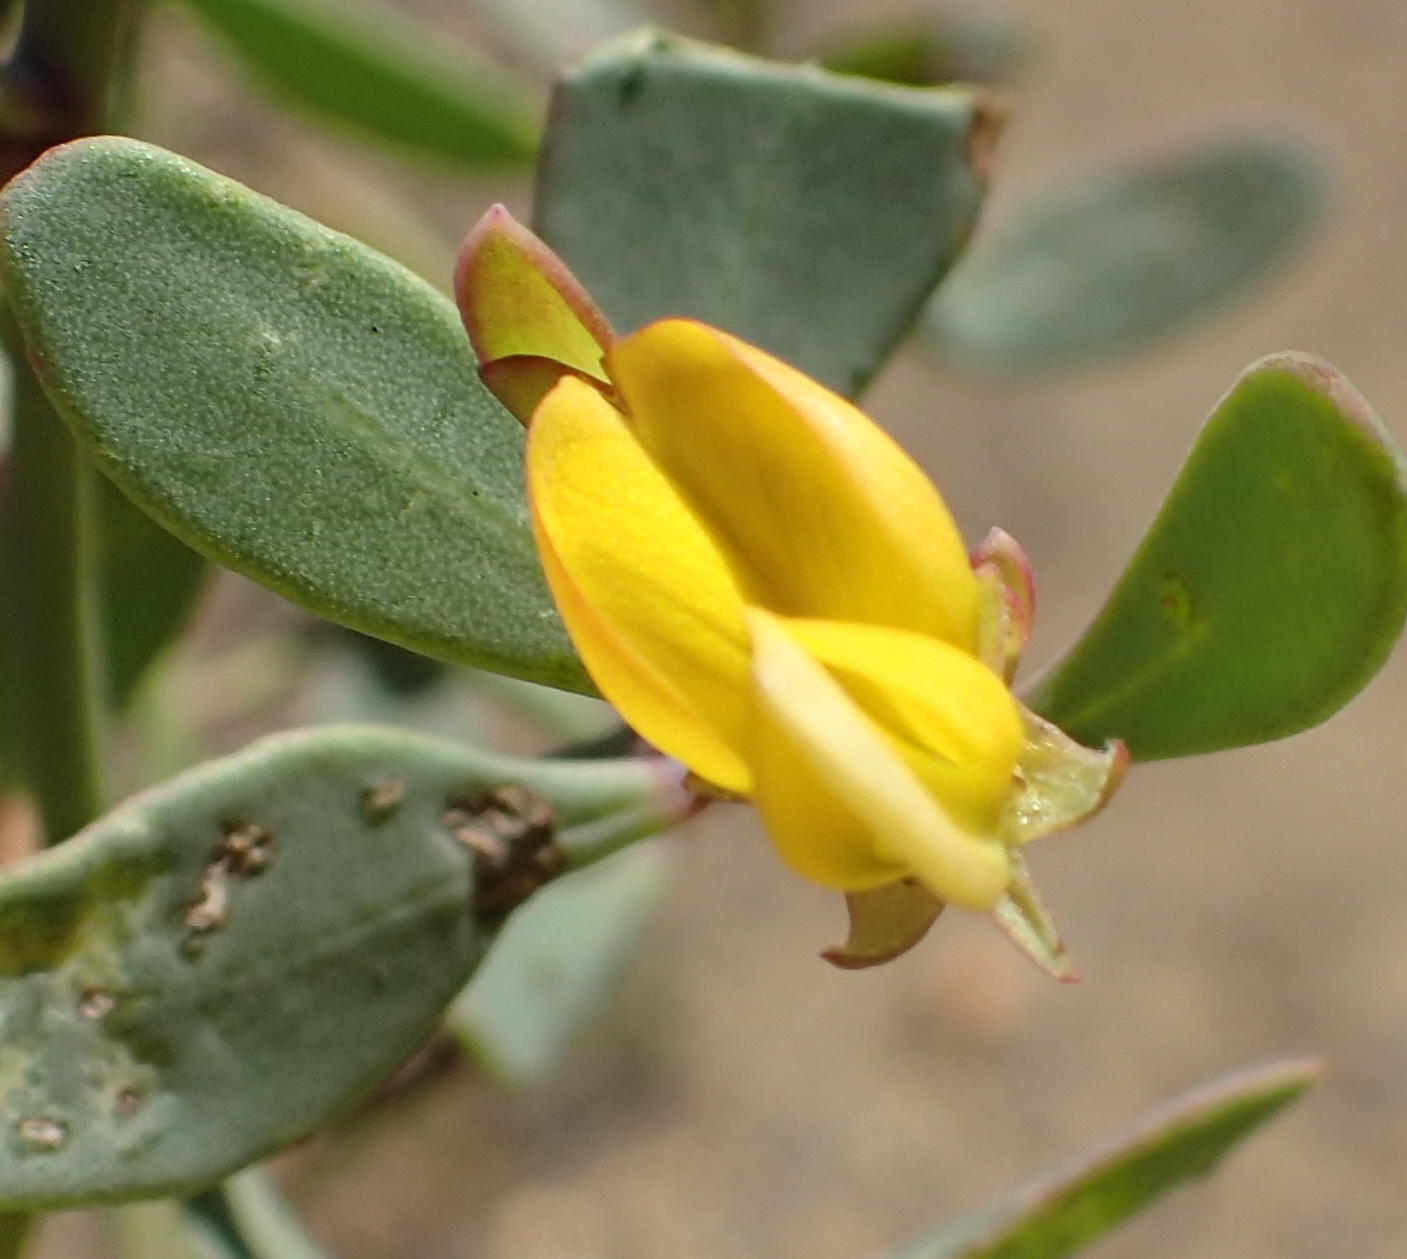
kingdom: Plantae
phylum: Tracheophyta
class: Magnoliopsida
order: Fabales
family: Fabaceae
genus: Rafnia
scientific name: Rafnia capensis
